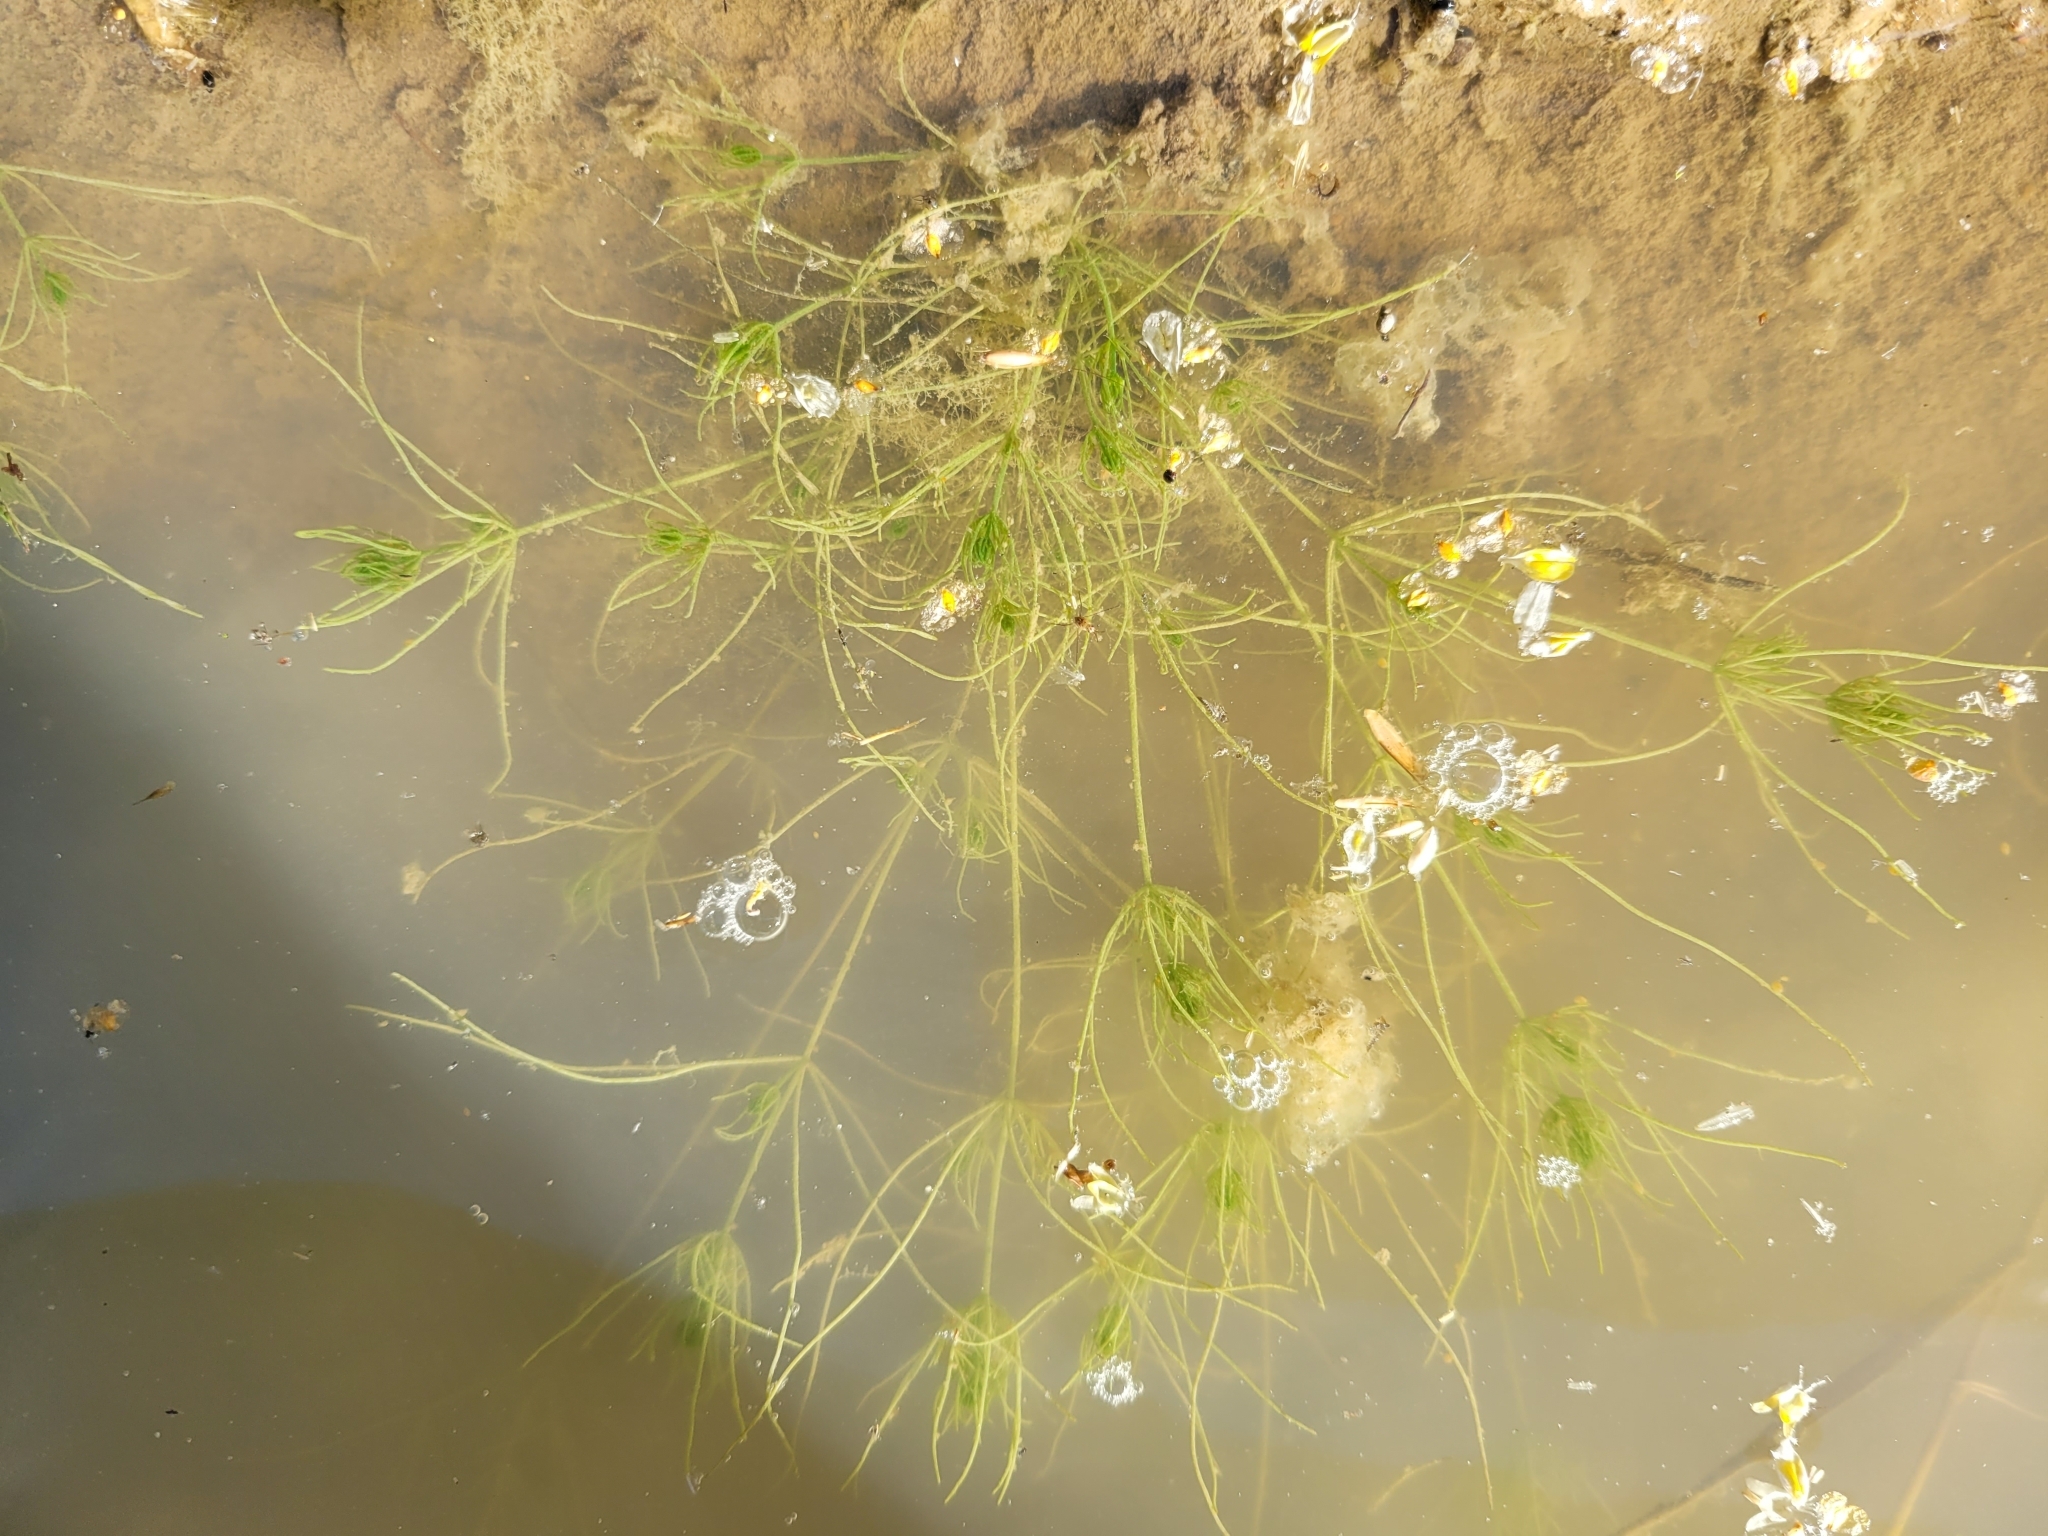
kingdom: Plantae
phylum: Charophyta
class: Charophyceae
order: Charales
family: Characeae
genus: Chara
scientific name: Chara vulgaris
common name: Common stonewort
